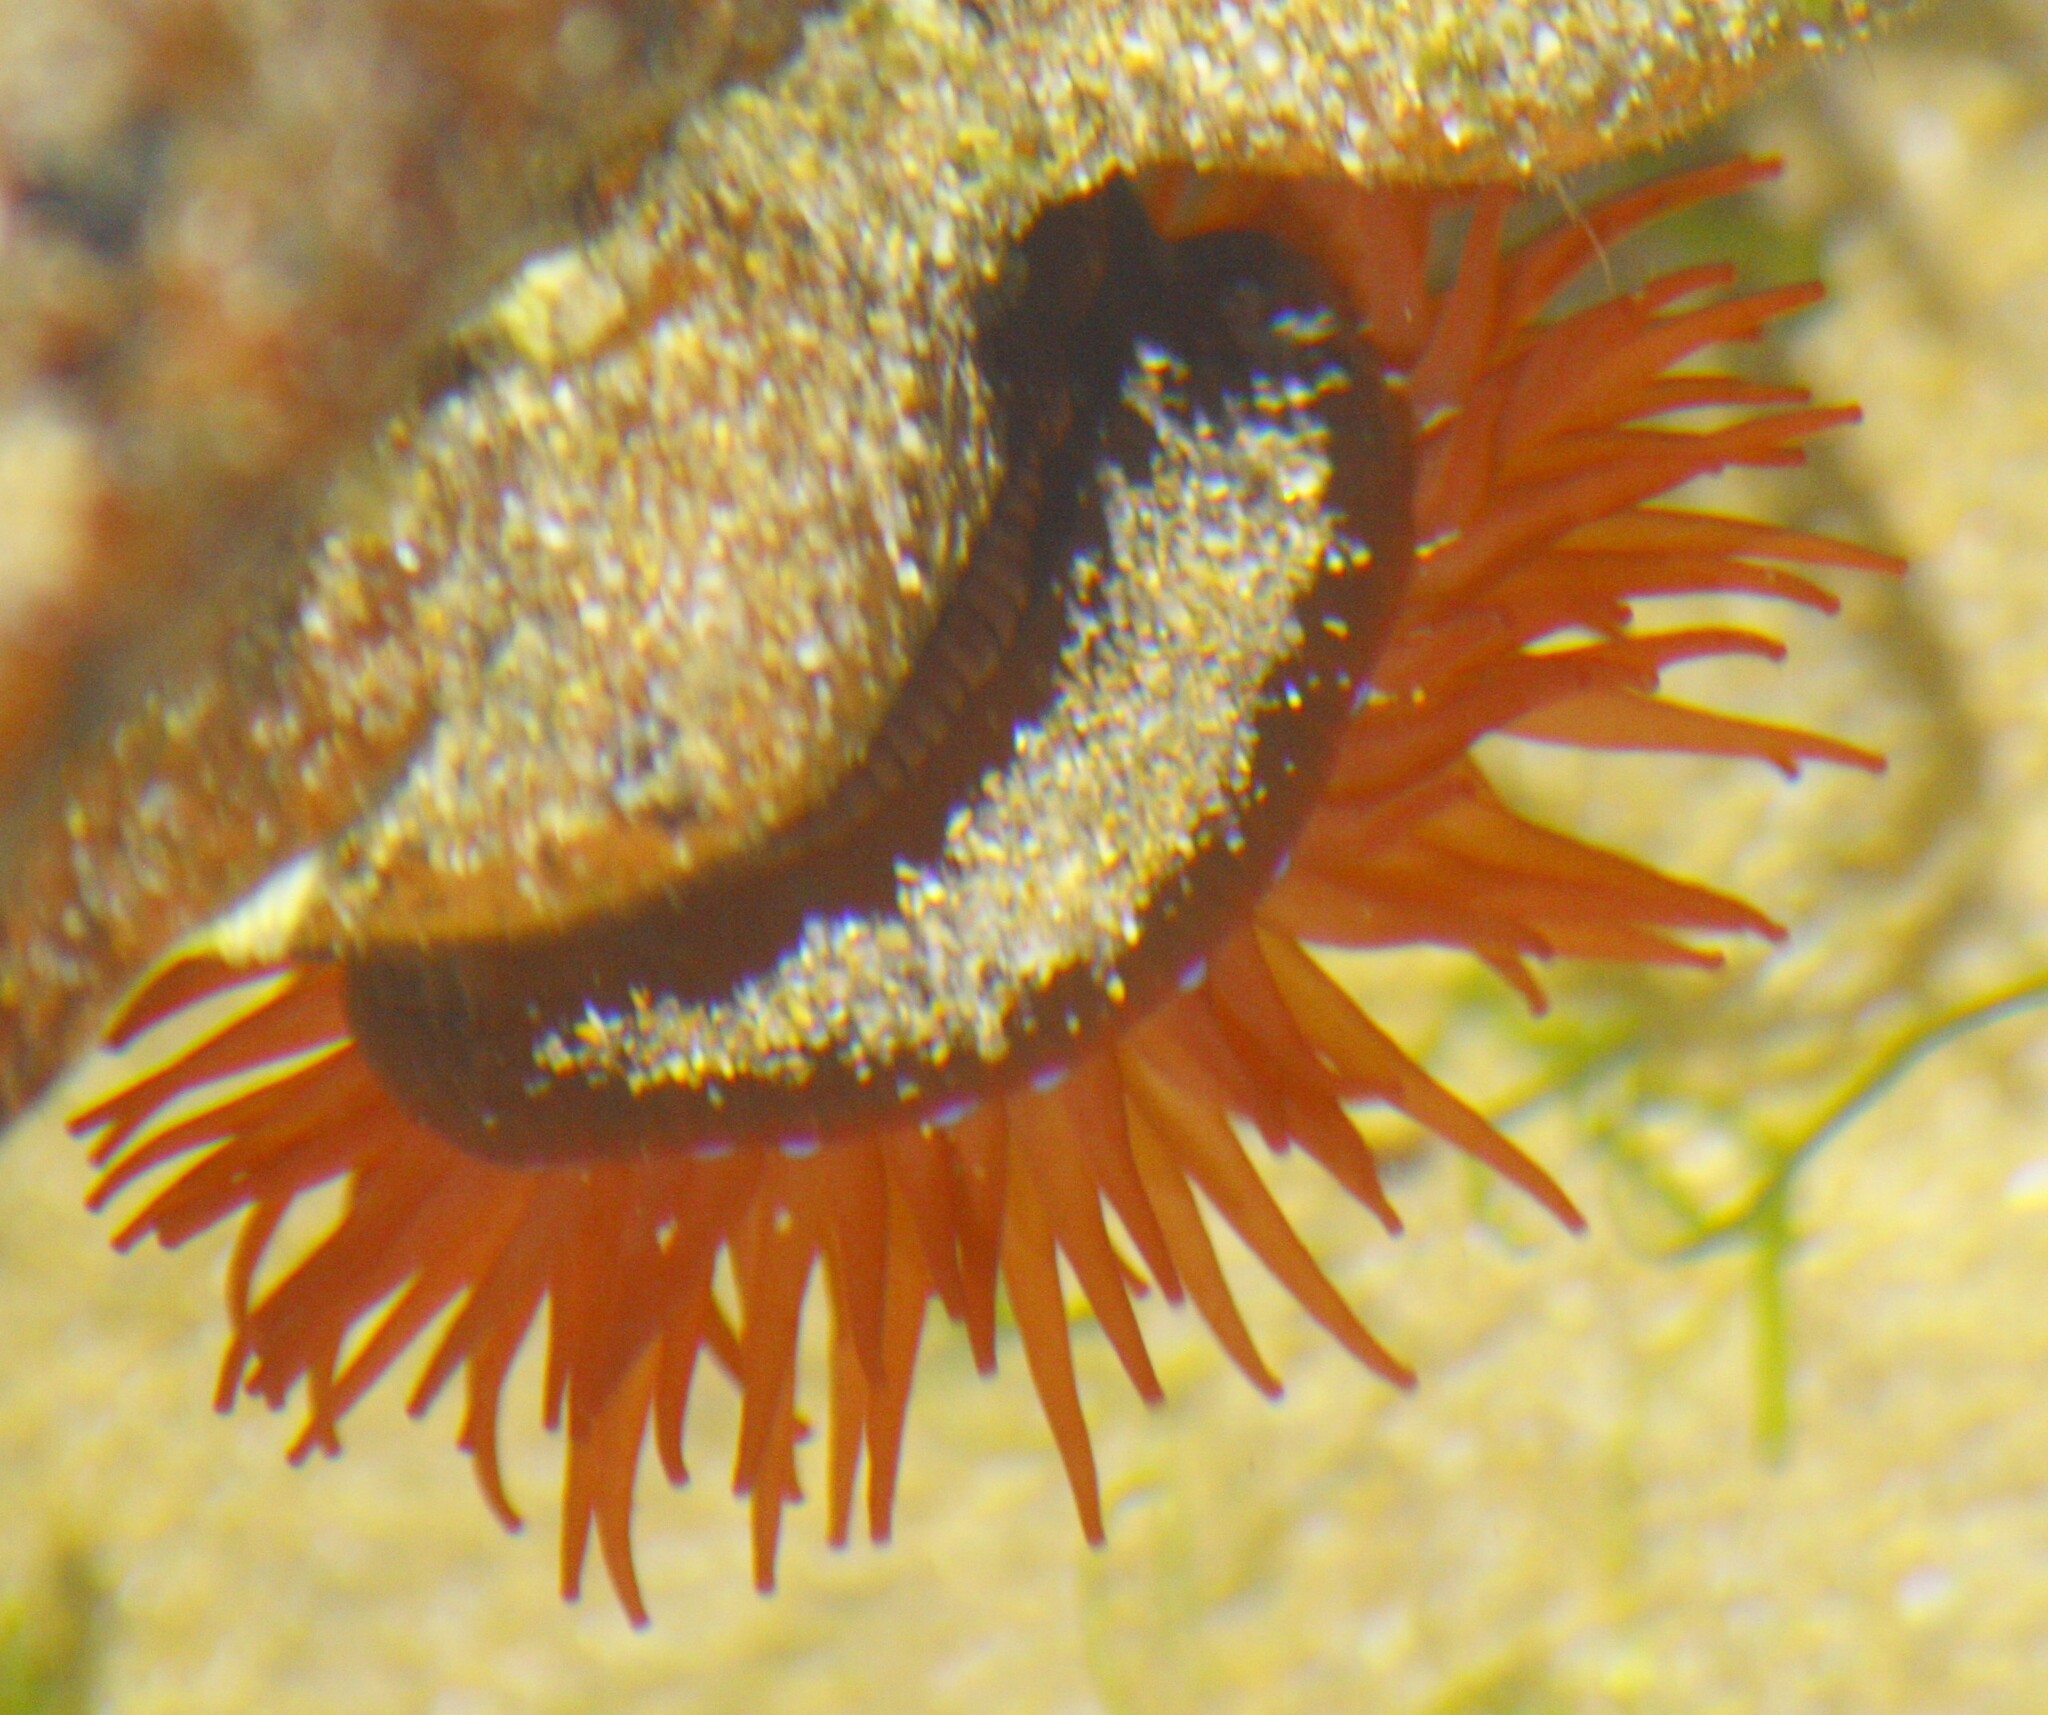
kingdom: Animalia
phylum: Cnidaria
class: Anthozoa
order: Actiniaria
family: Actiniidae
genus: Actinia
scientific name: Actinia equina
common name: Beadlet anemone
